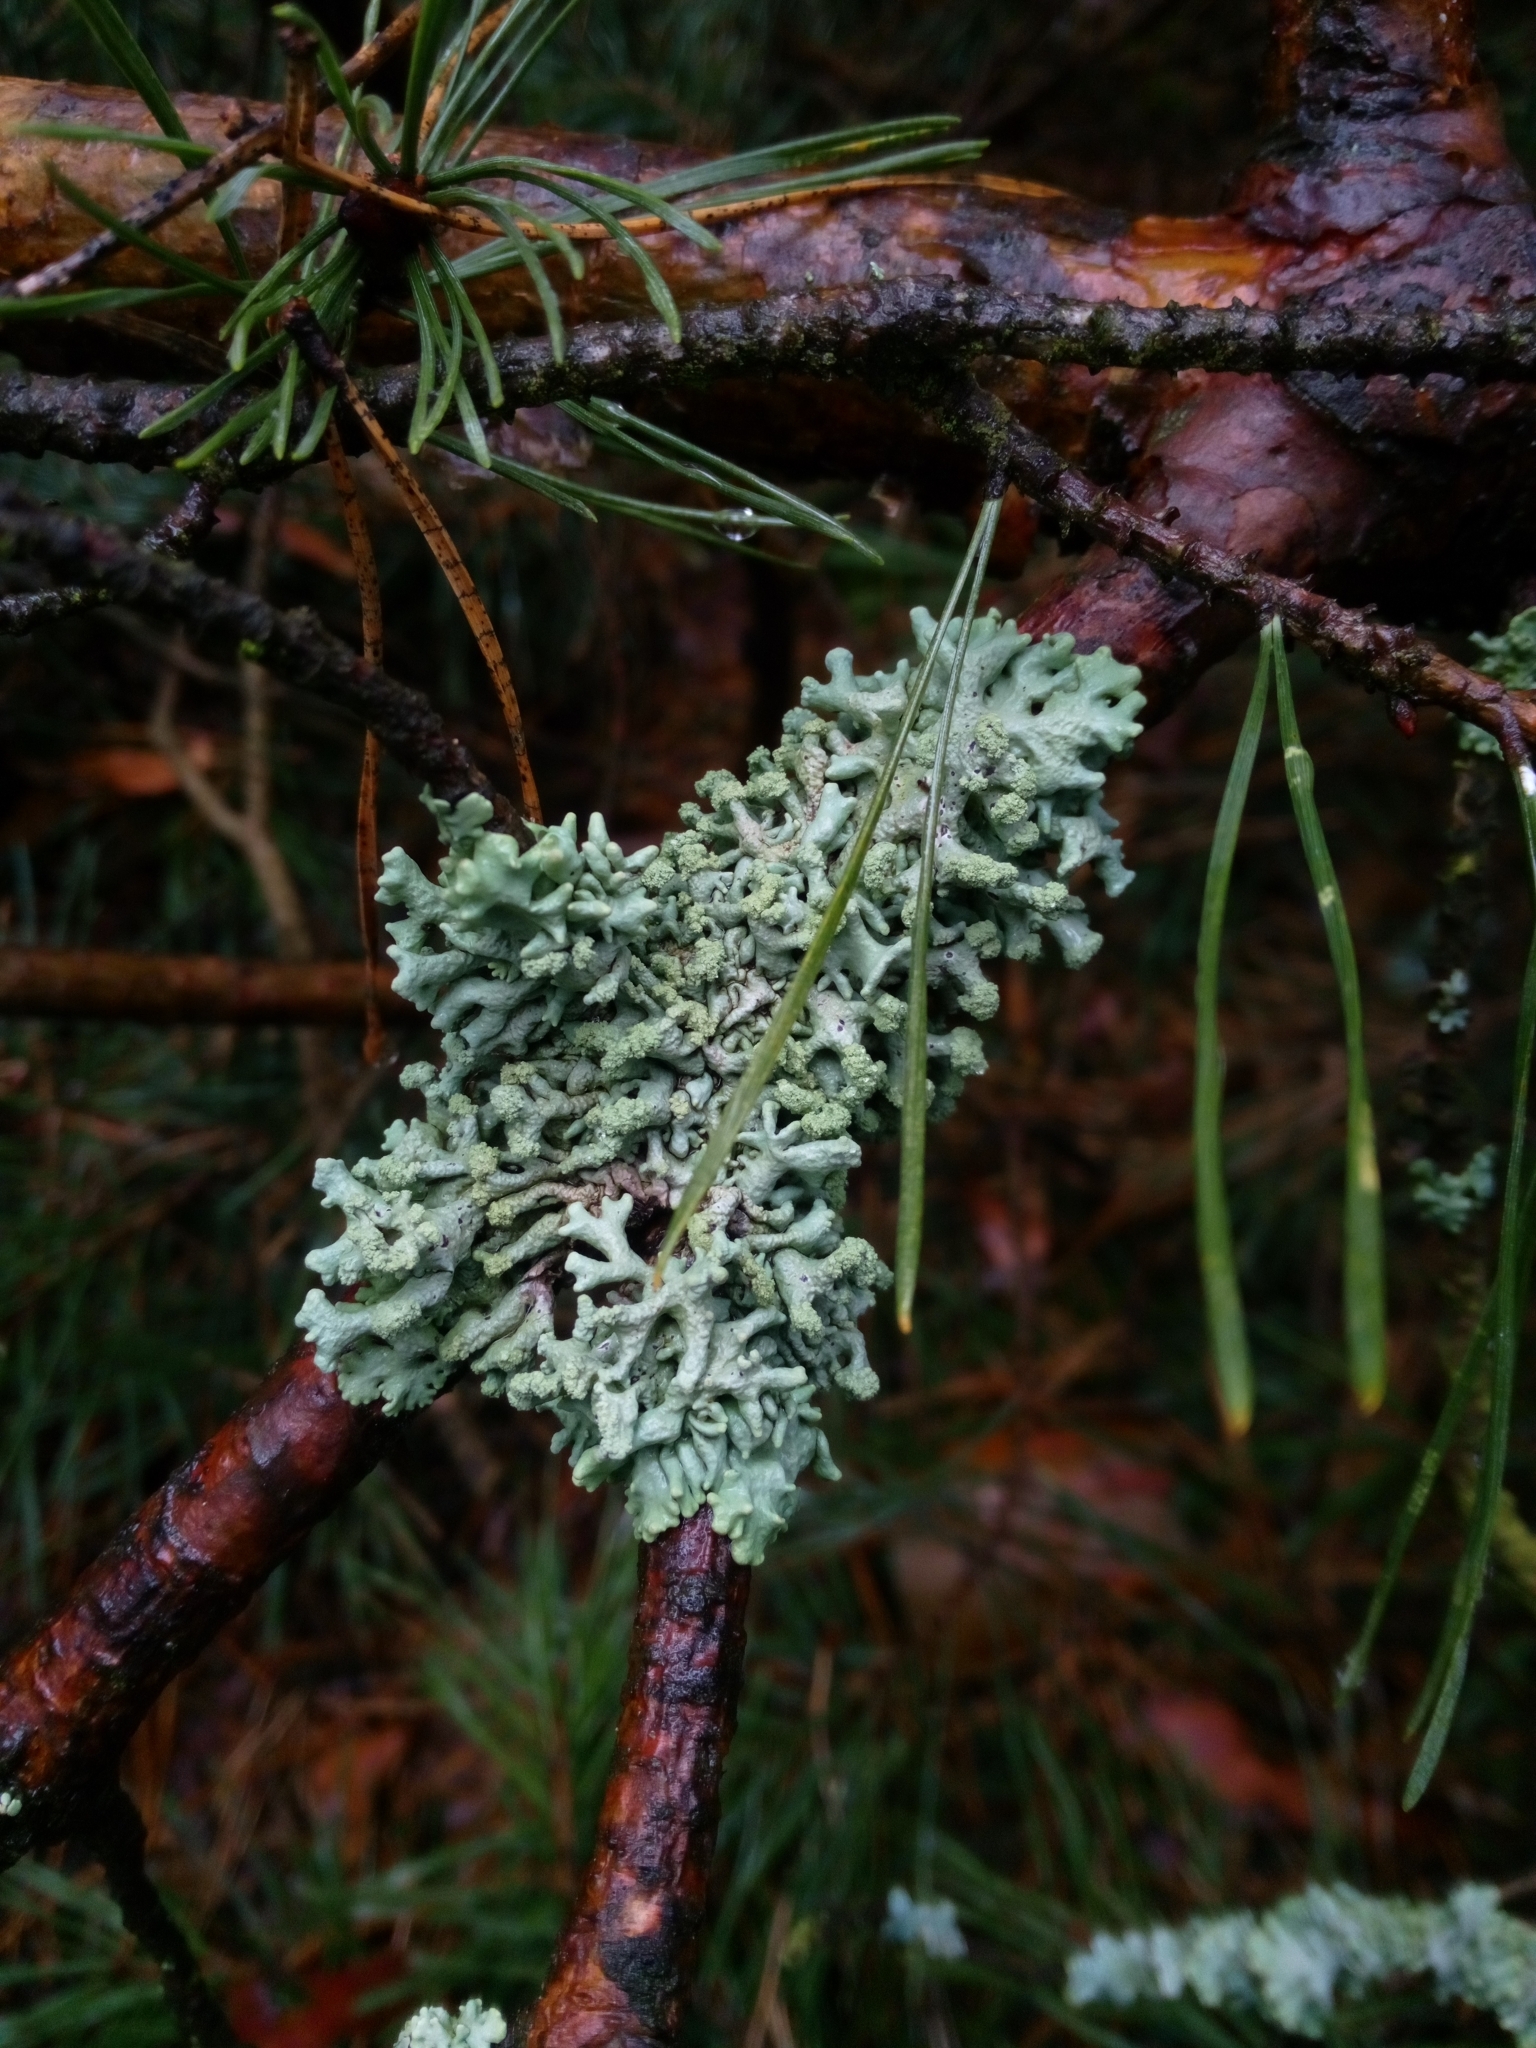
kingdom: Fungi
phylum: Ascomycota
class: Lecanoromycetes
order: Lecanorales
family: Parmeliaceae
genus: Hypogymnia
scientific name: Hypogymnia tubulosa
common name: Powder-headed tube lichen
